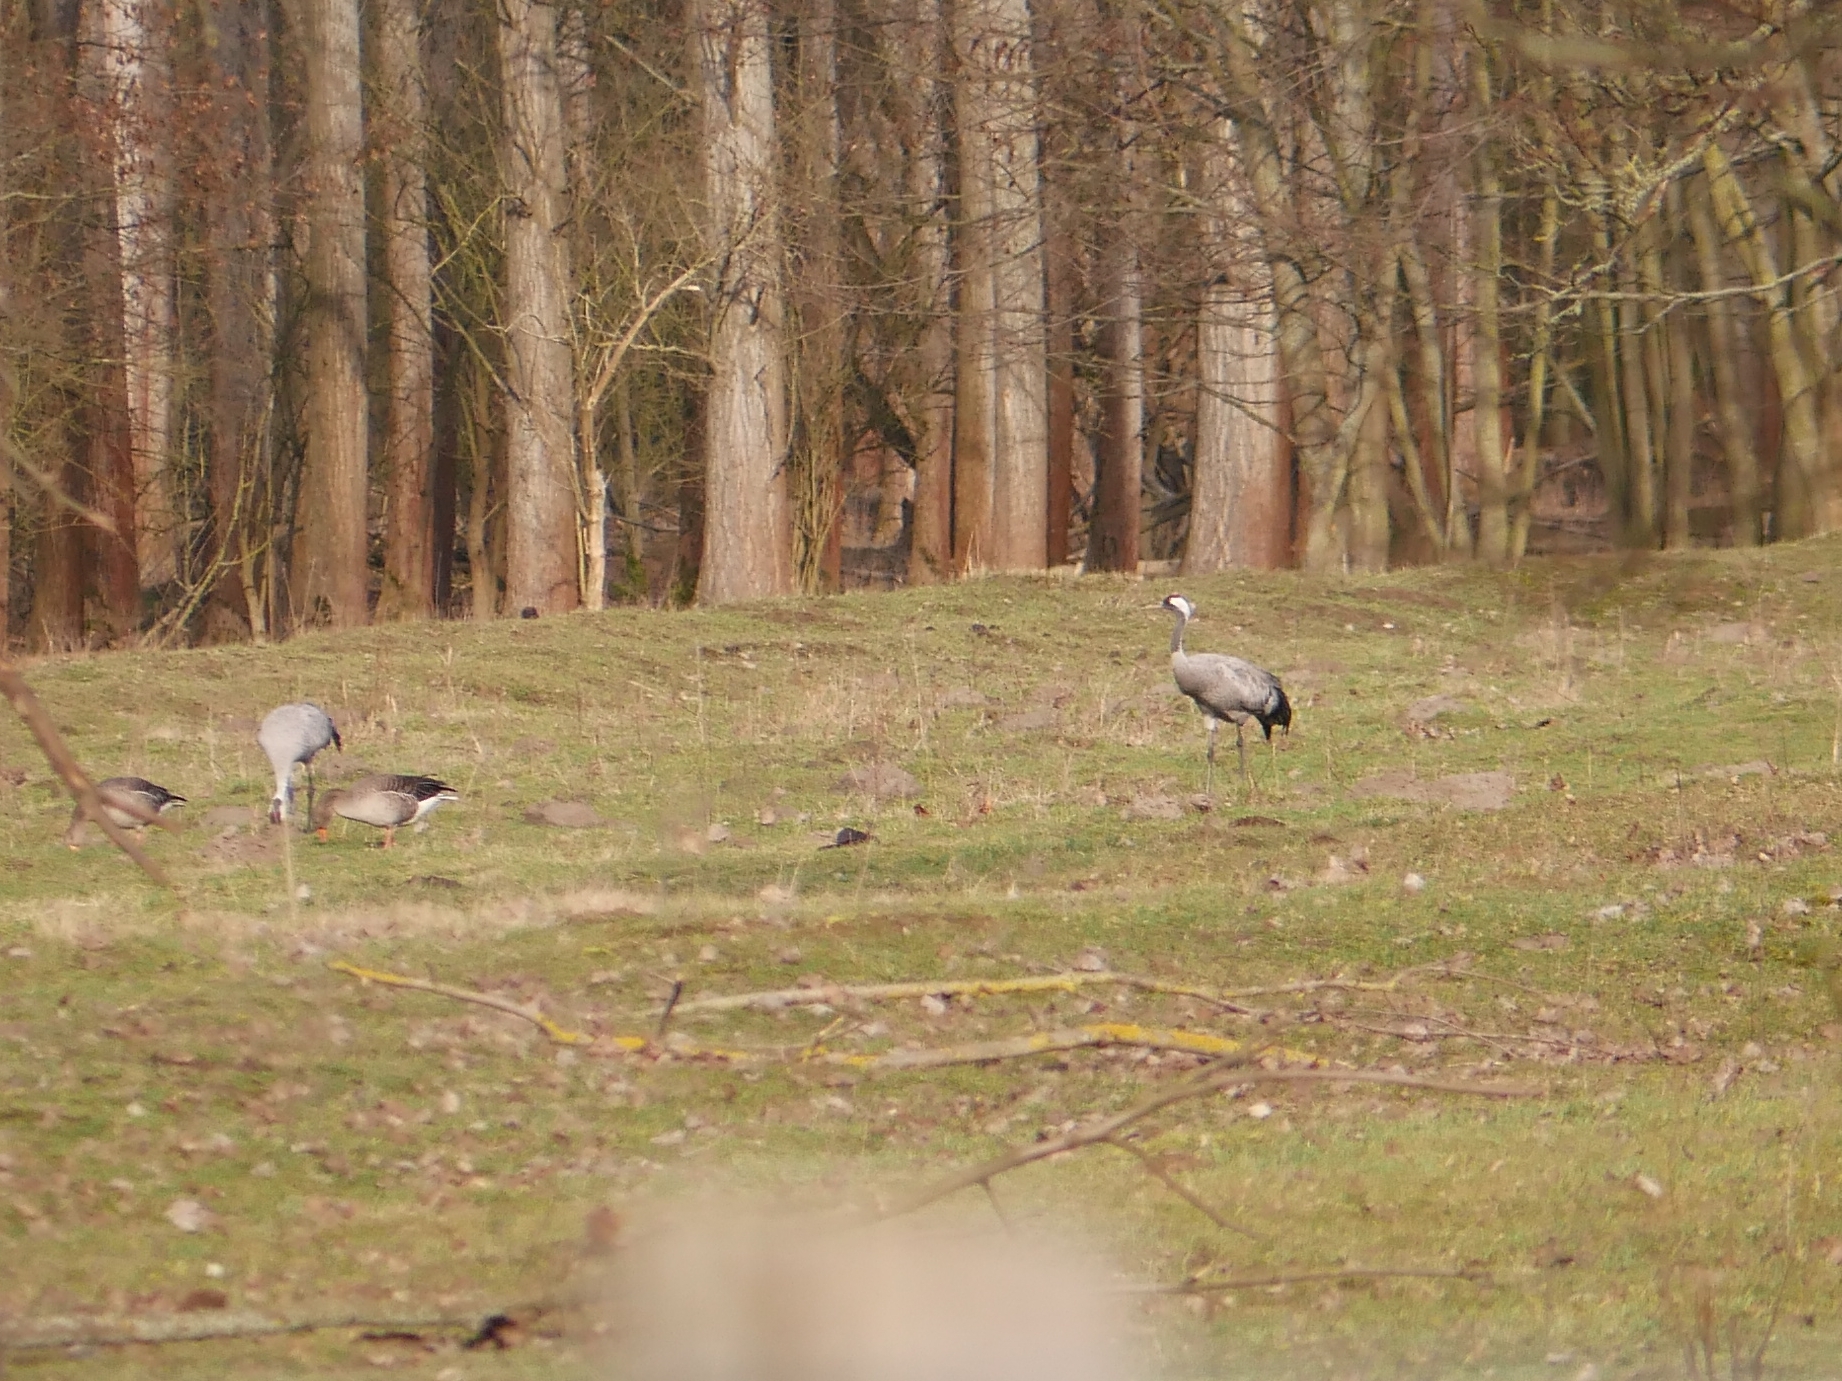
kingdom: Animalia
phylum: Chordata
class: Aves
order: Gruiformes
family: Gruidae
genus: Grus
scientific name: Grus grus
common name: Common crane
